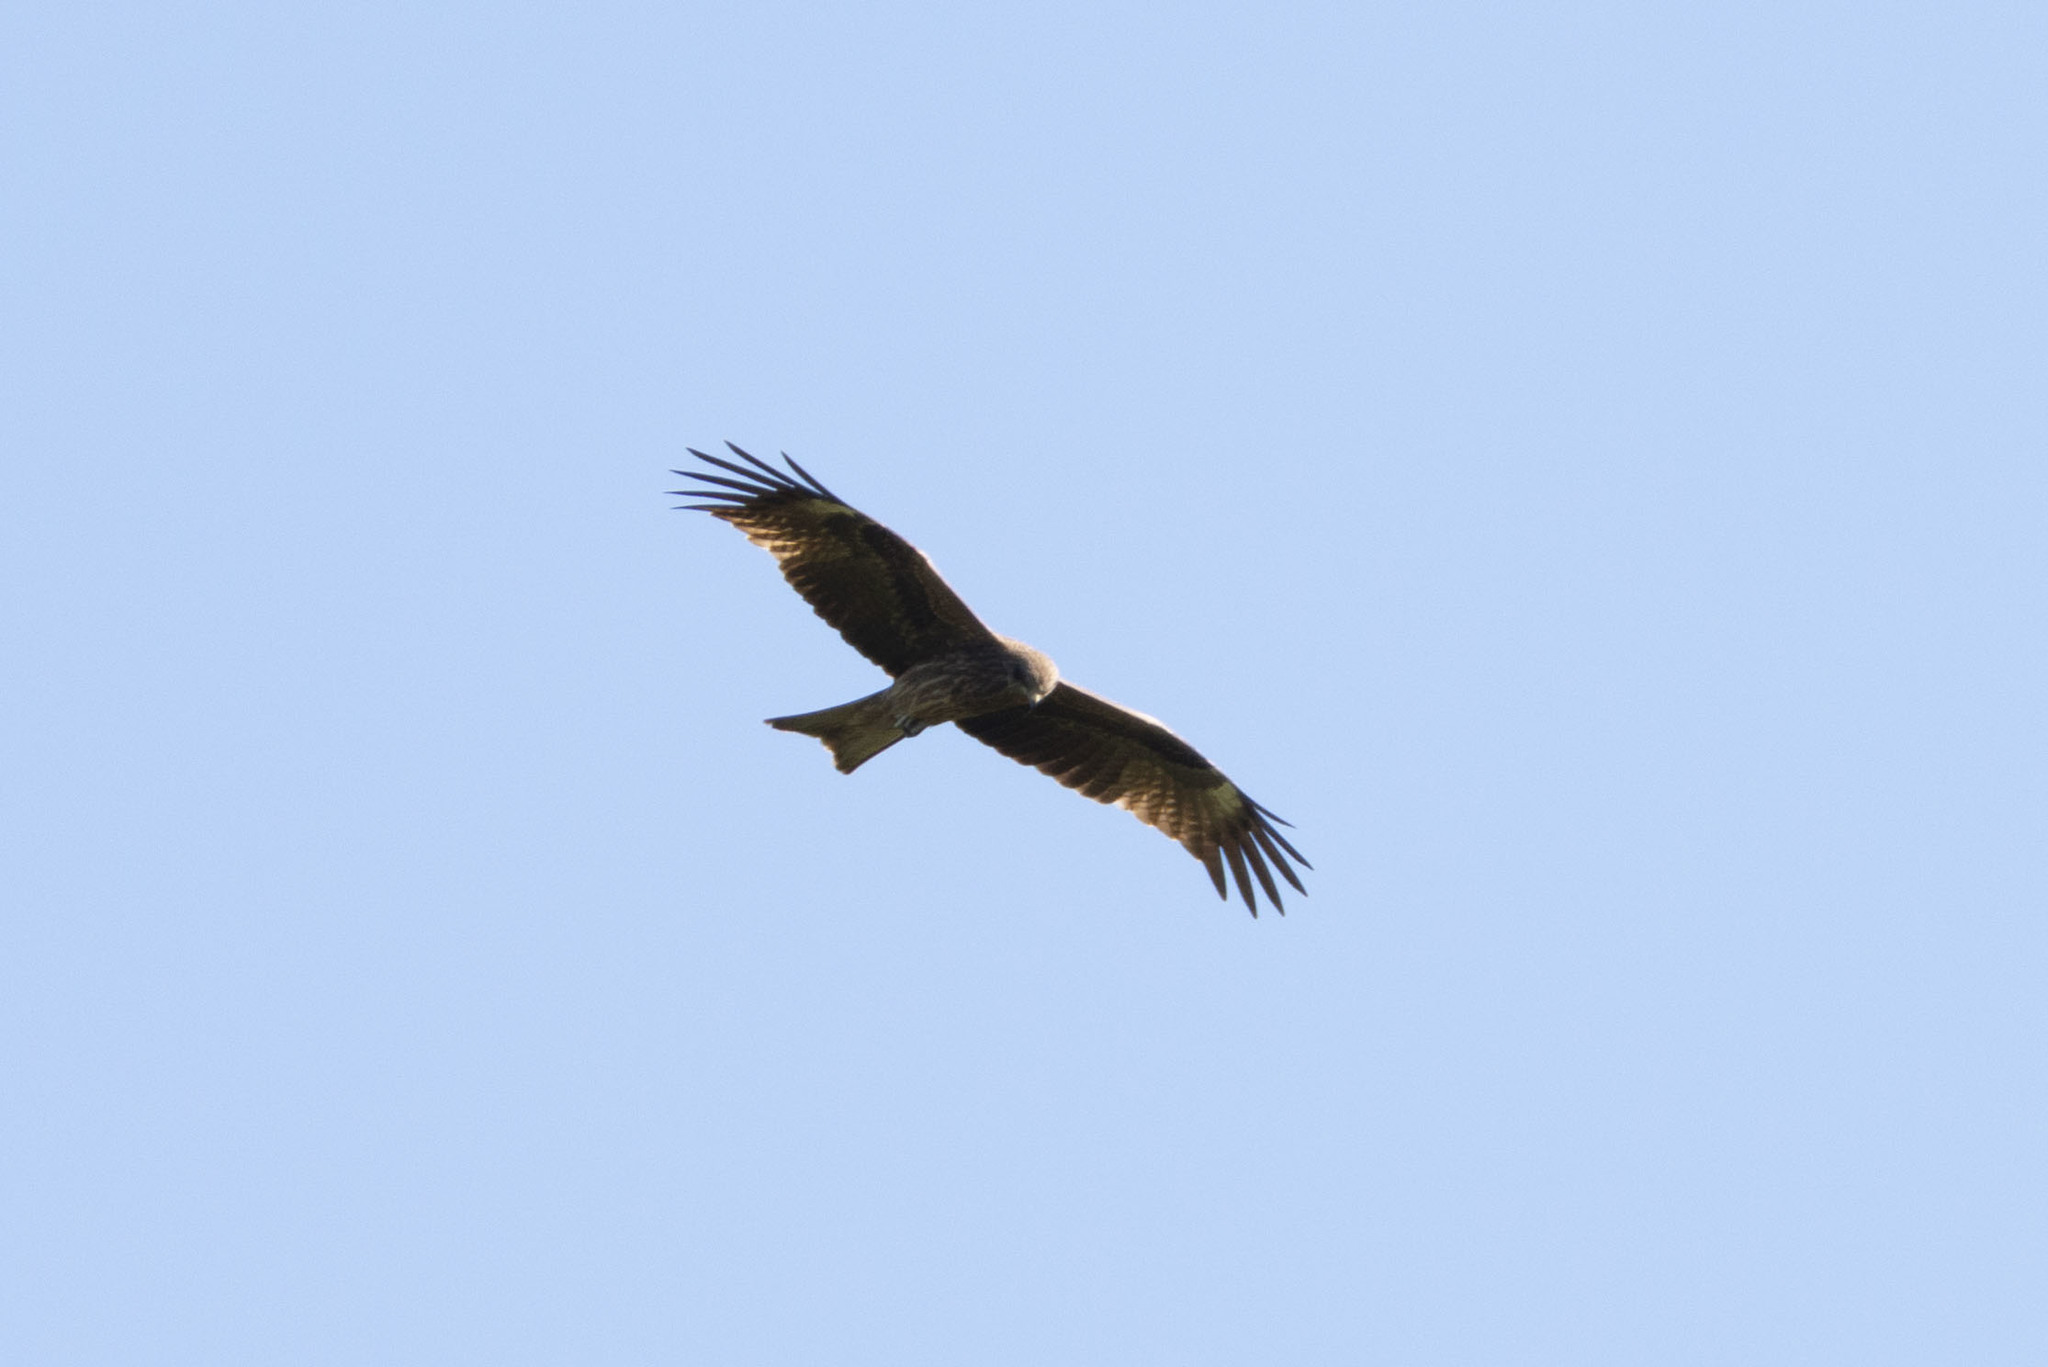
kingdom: Animalia
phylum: Chordata
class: Aves
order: Accipitriformes
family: Accipitridae
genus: Milvus
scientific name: Milvus migrans
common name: Black kite
